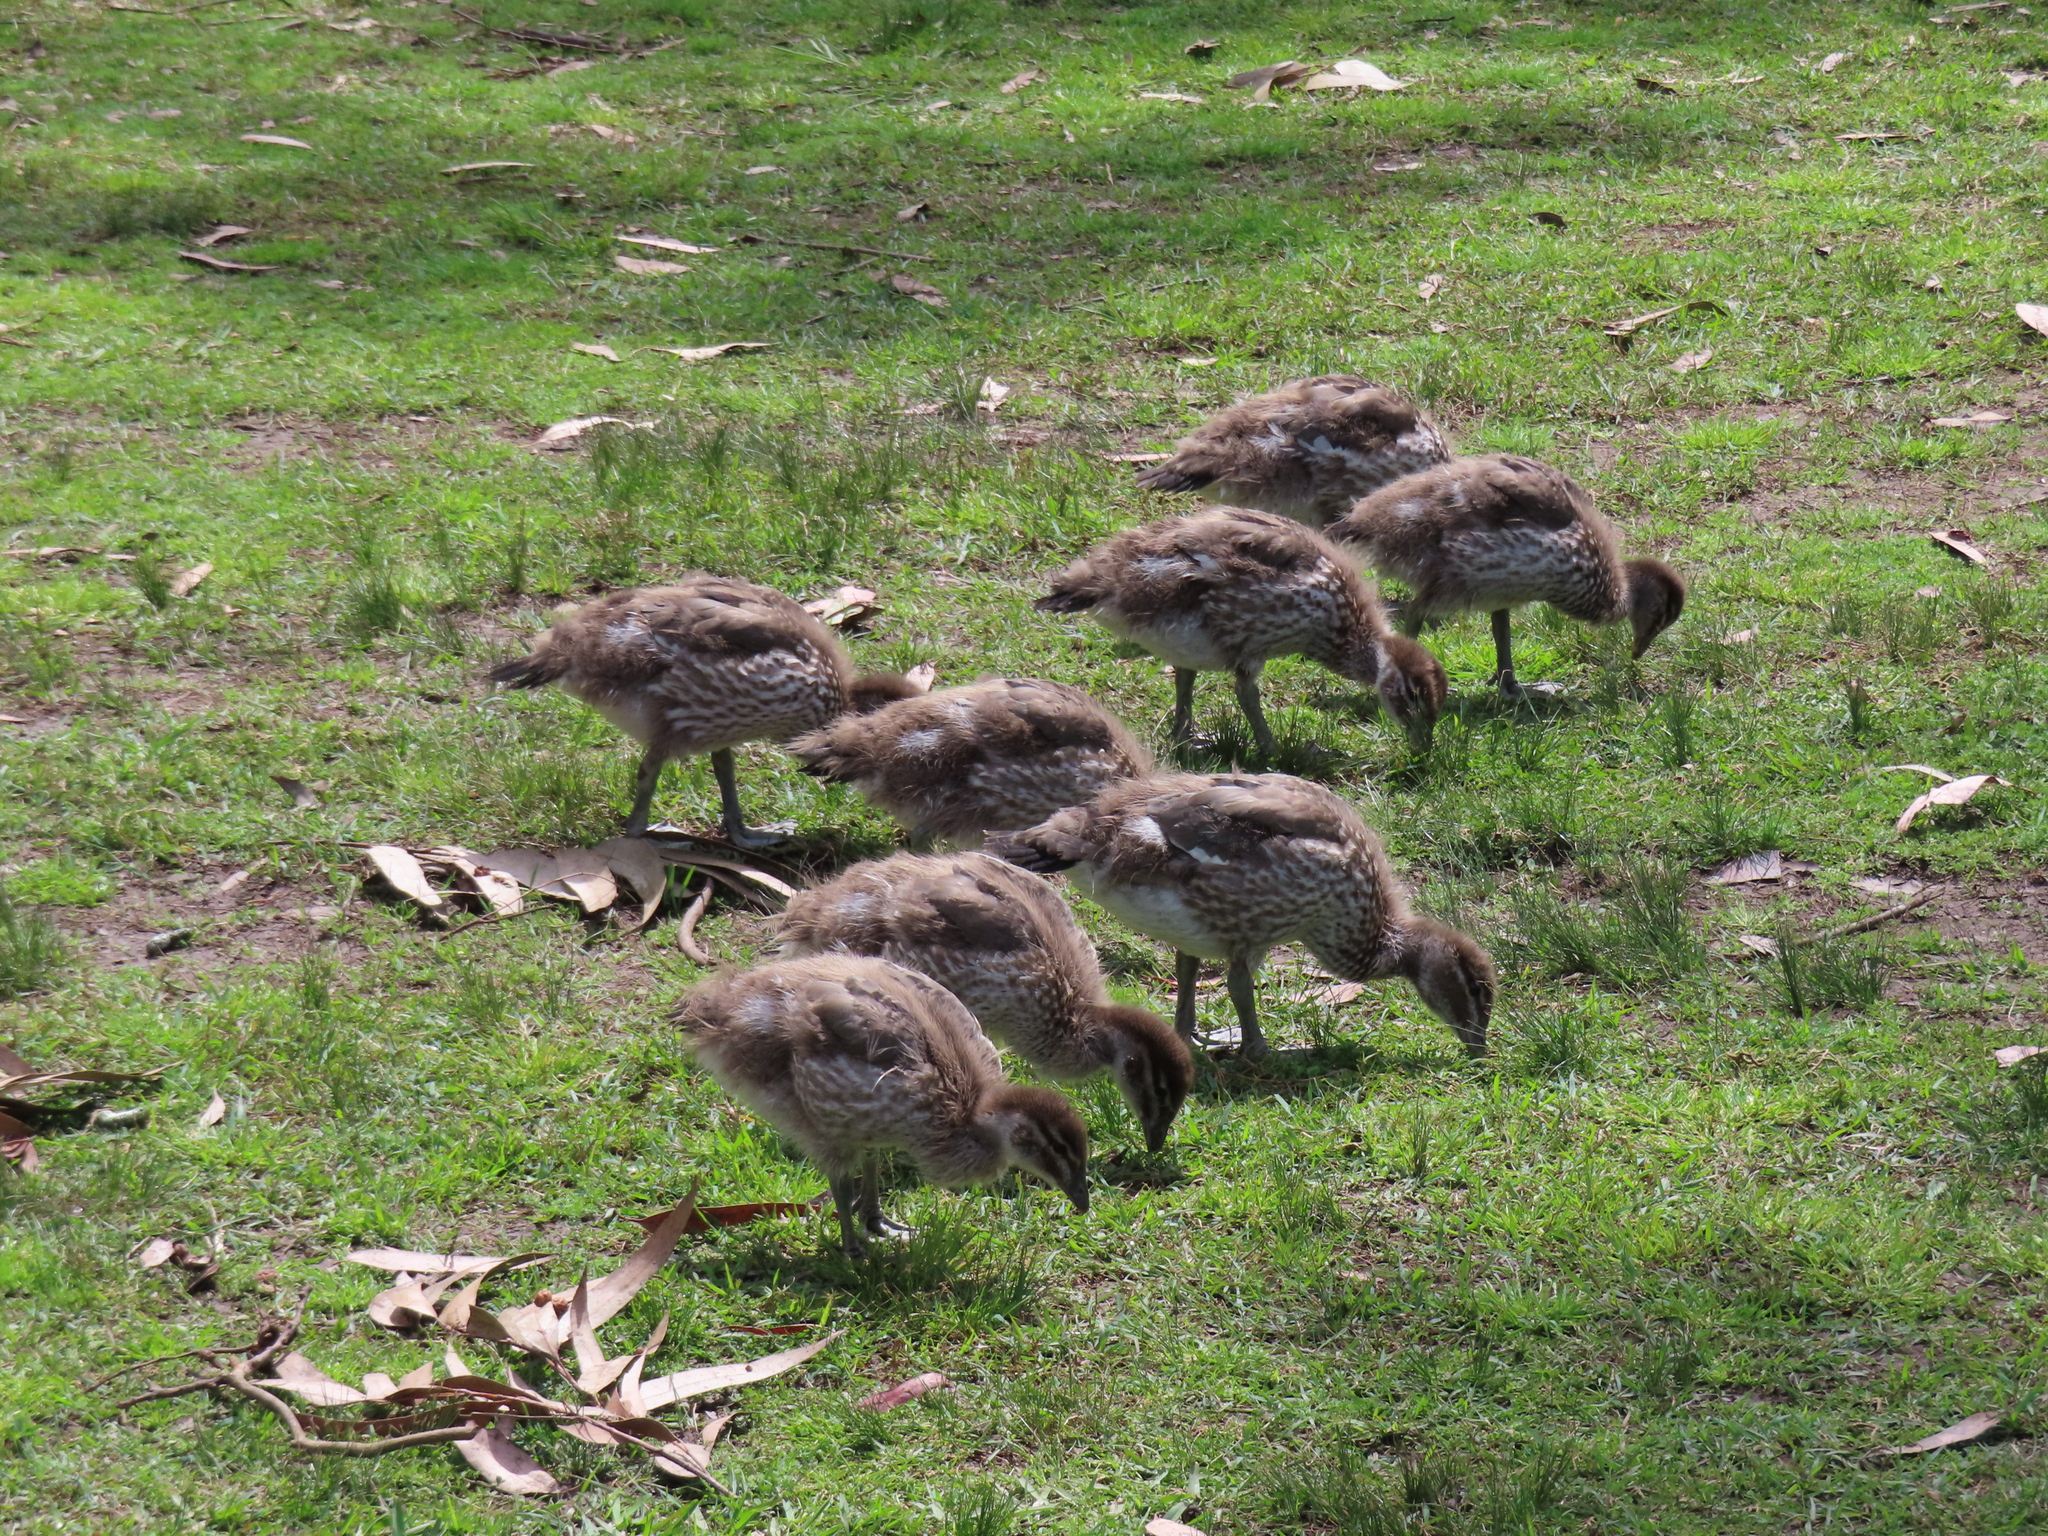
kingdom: Animalia
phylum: Chordata
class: Aves
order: Anseriformes
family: Anatidae
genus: Chenonetta
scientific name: Chenonetta jubata
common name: Maned duck
